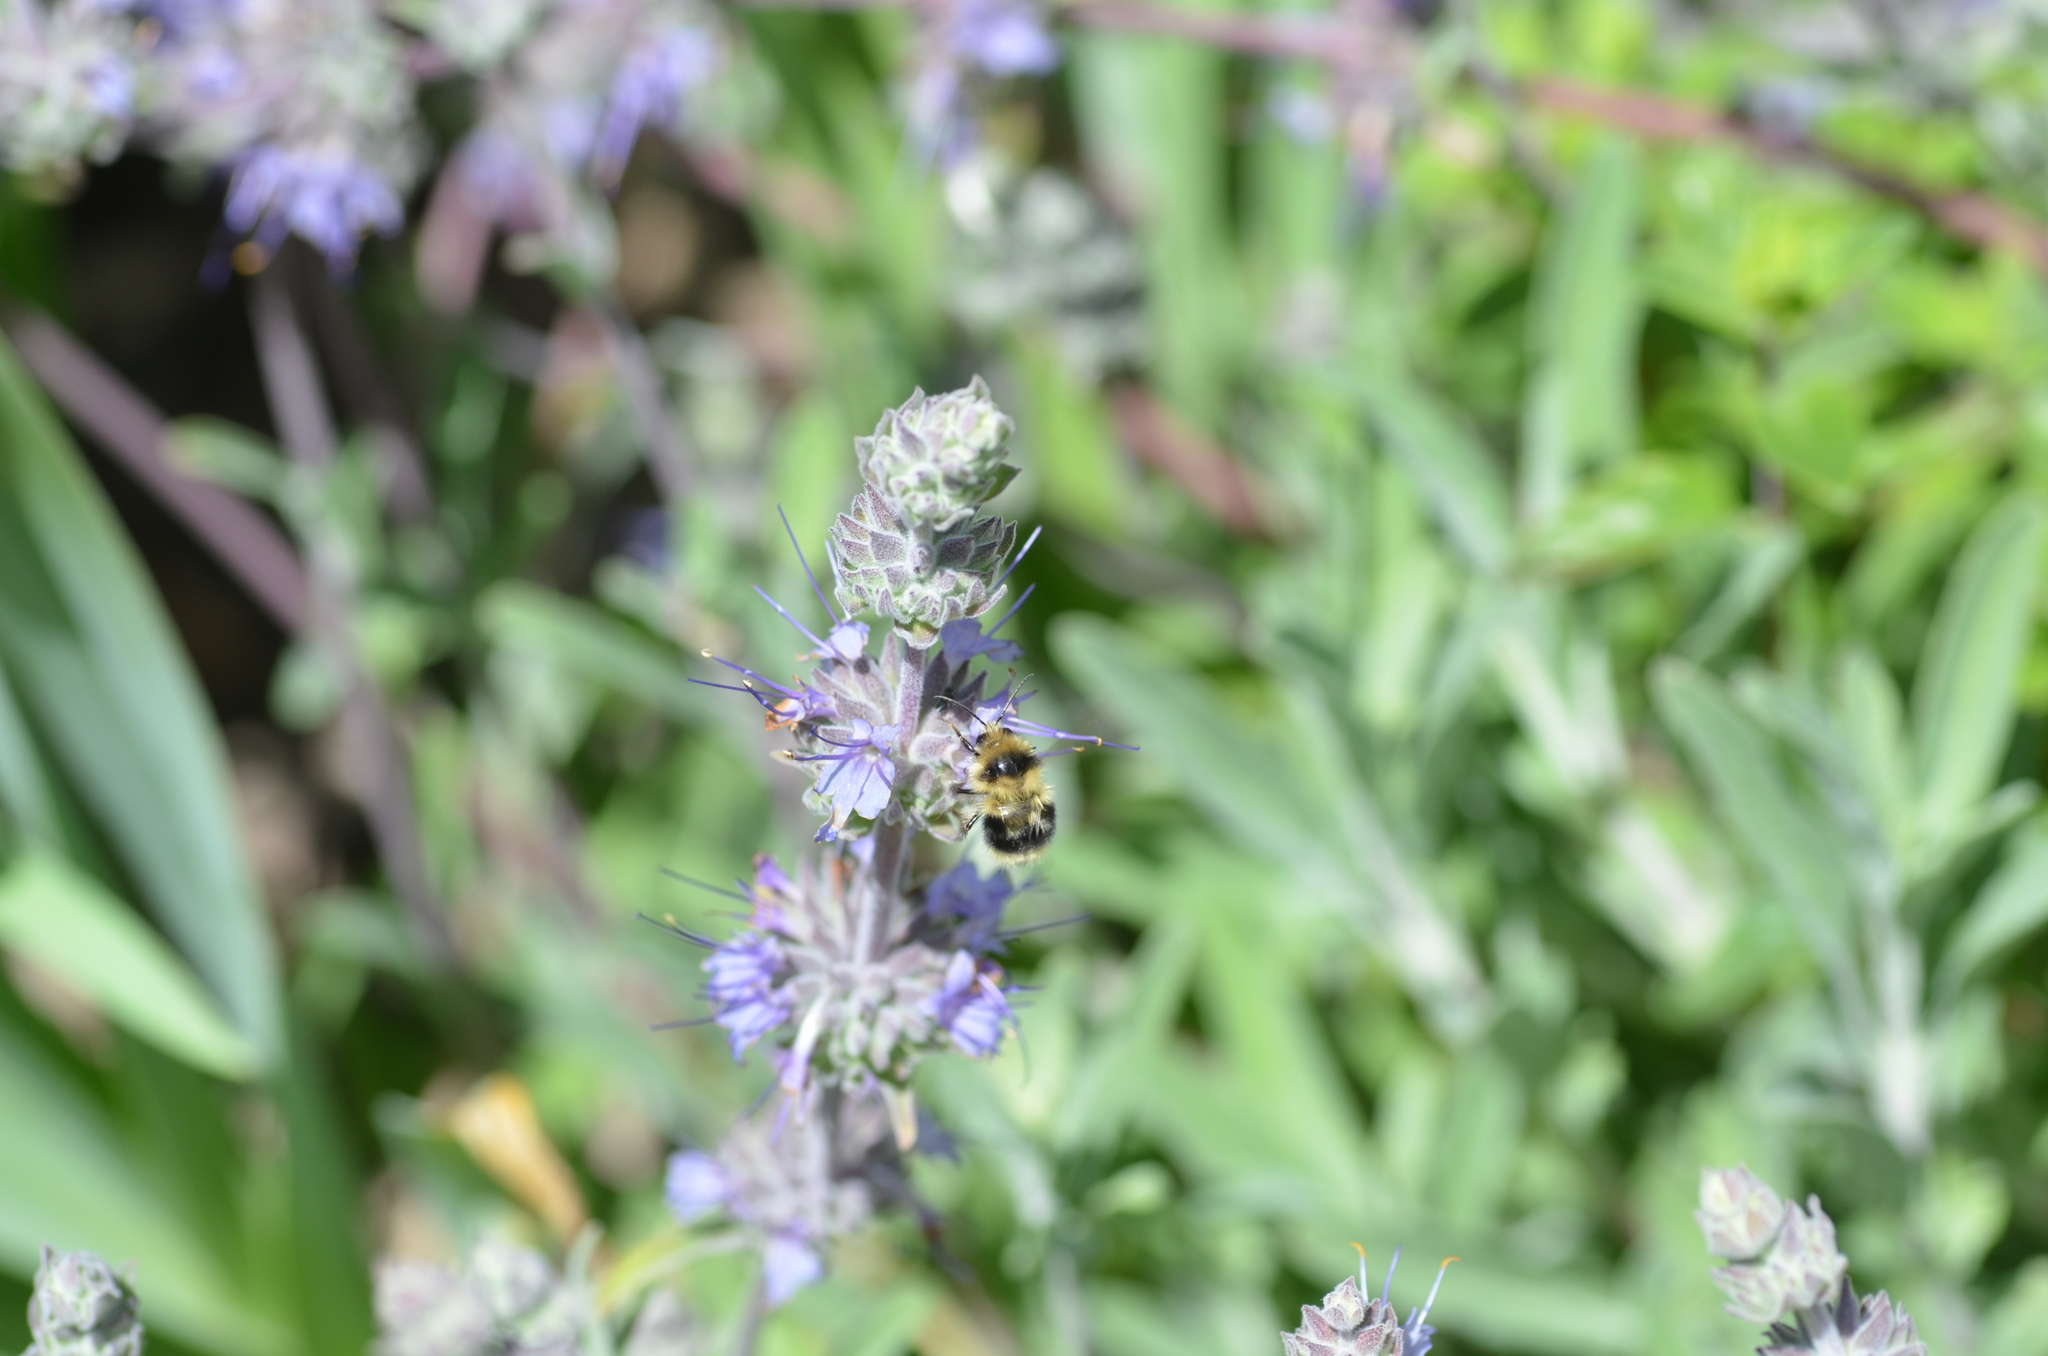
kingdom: Animalia
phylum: Arthropoda
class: Insecta
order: Hymenoptera
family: Apidae
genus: Bombus
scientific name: Bombus melanopygus
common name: Black tail bumble bee
